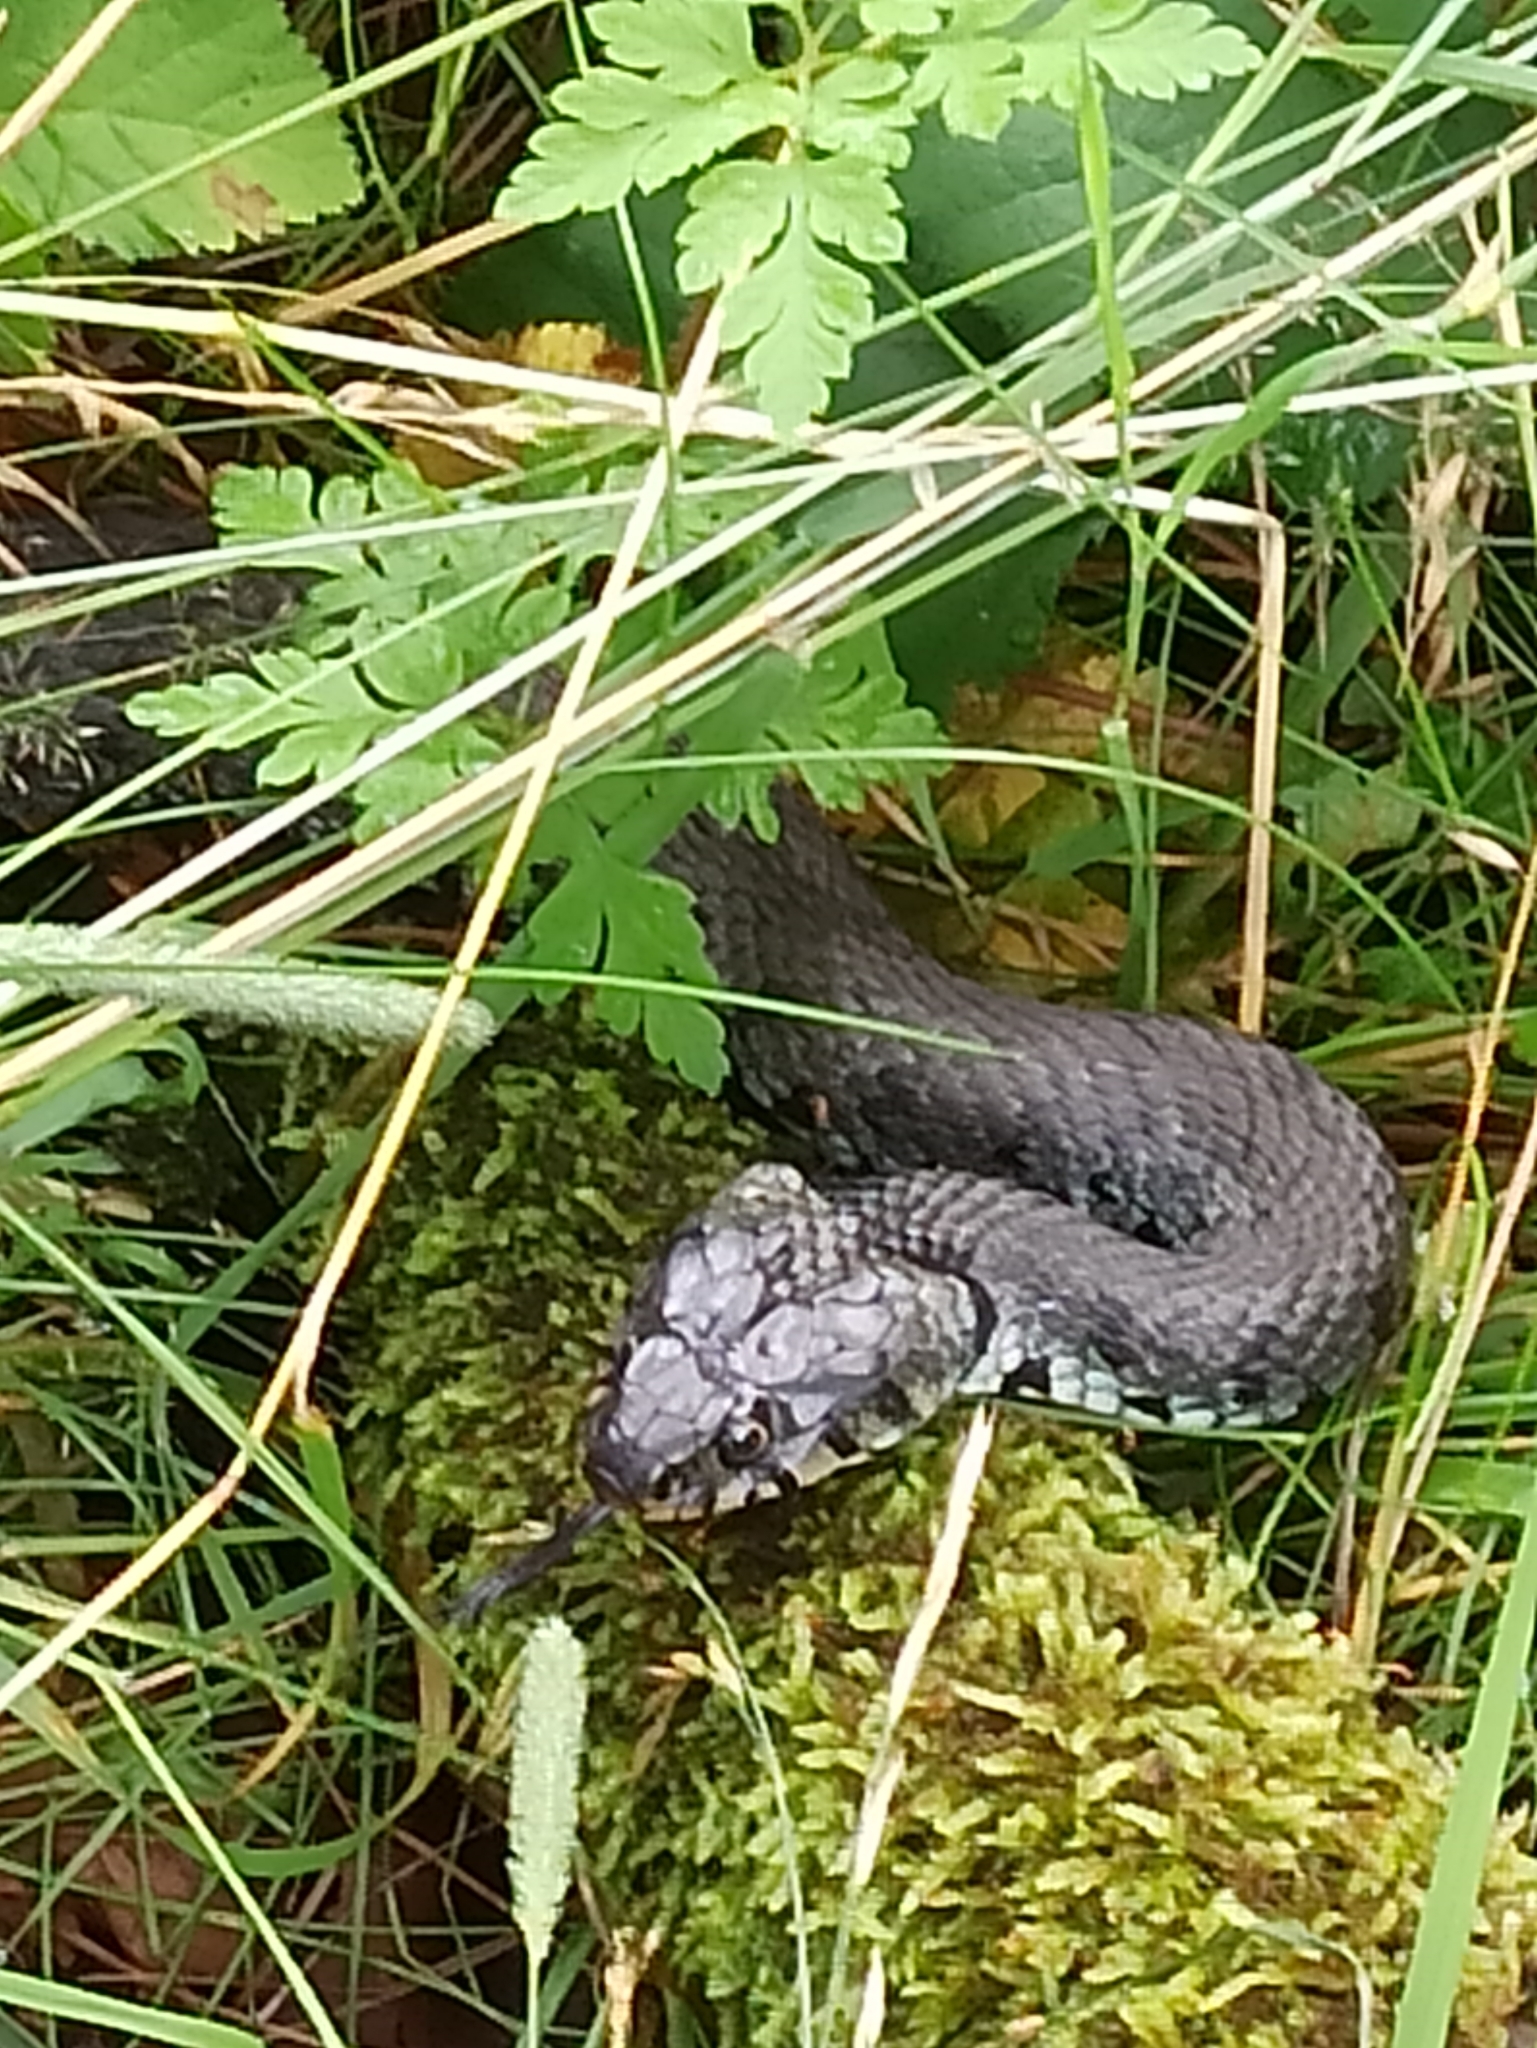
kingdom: Animalia
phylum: Chordata
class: Squamata
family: Colubridae
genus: Natrix
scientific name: Natrix helvetica
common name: Banded grass snake
